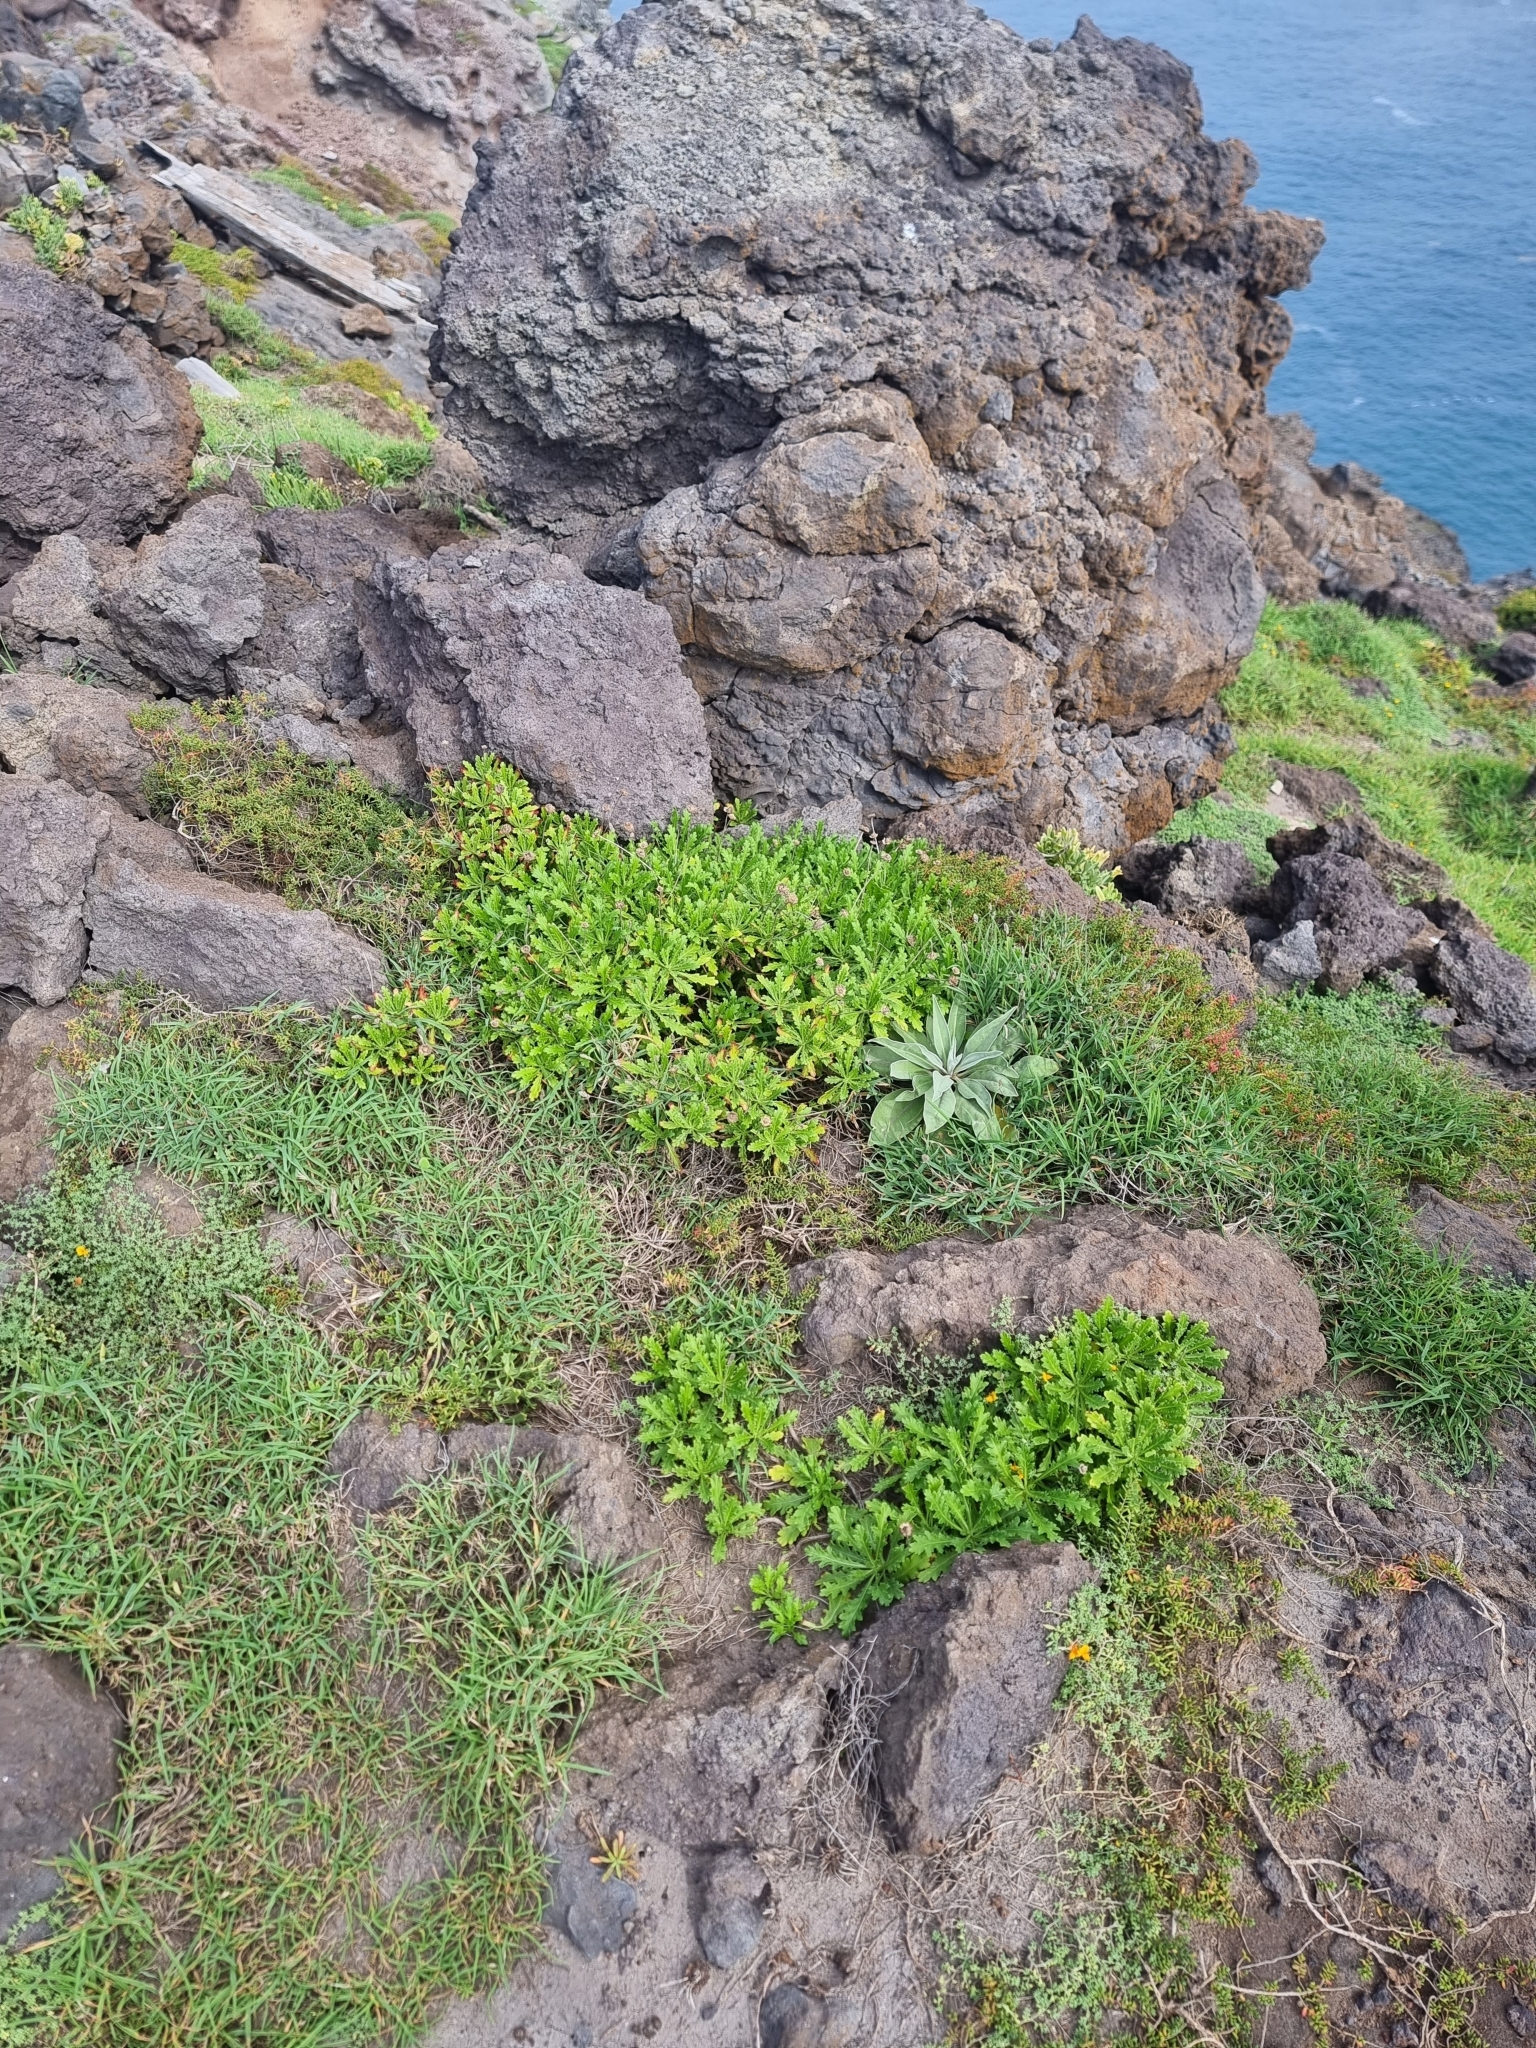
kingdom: Plantae
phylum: Tracheophyta
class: Magnoliopsida
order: Asterales
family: Asteraceae
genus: Argyranthemum
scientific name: Argyranthemum pinnatifidum
